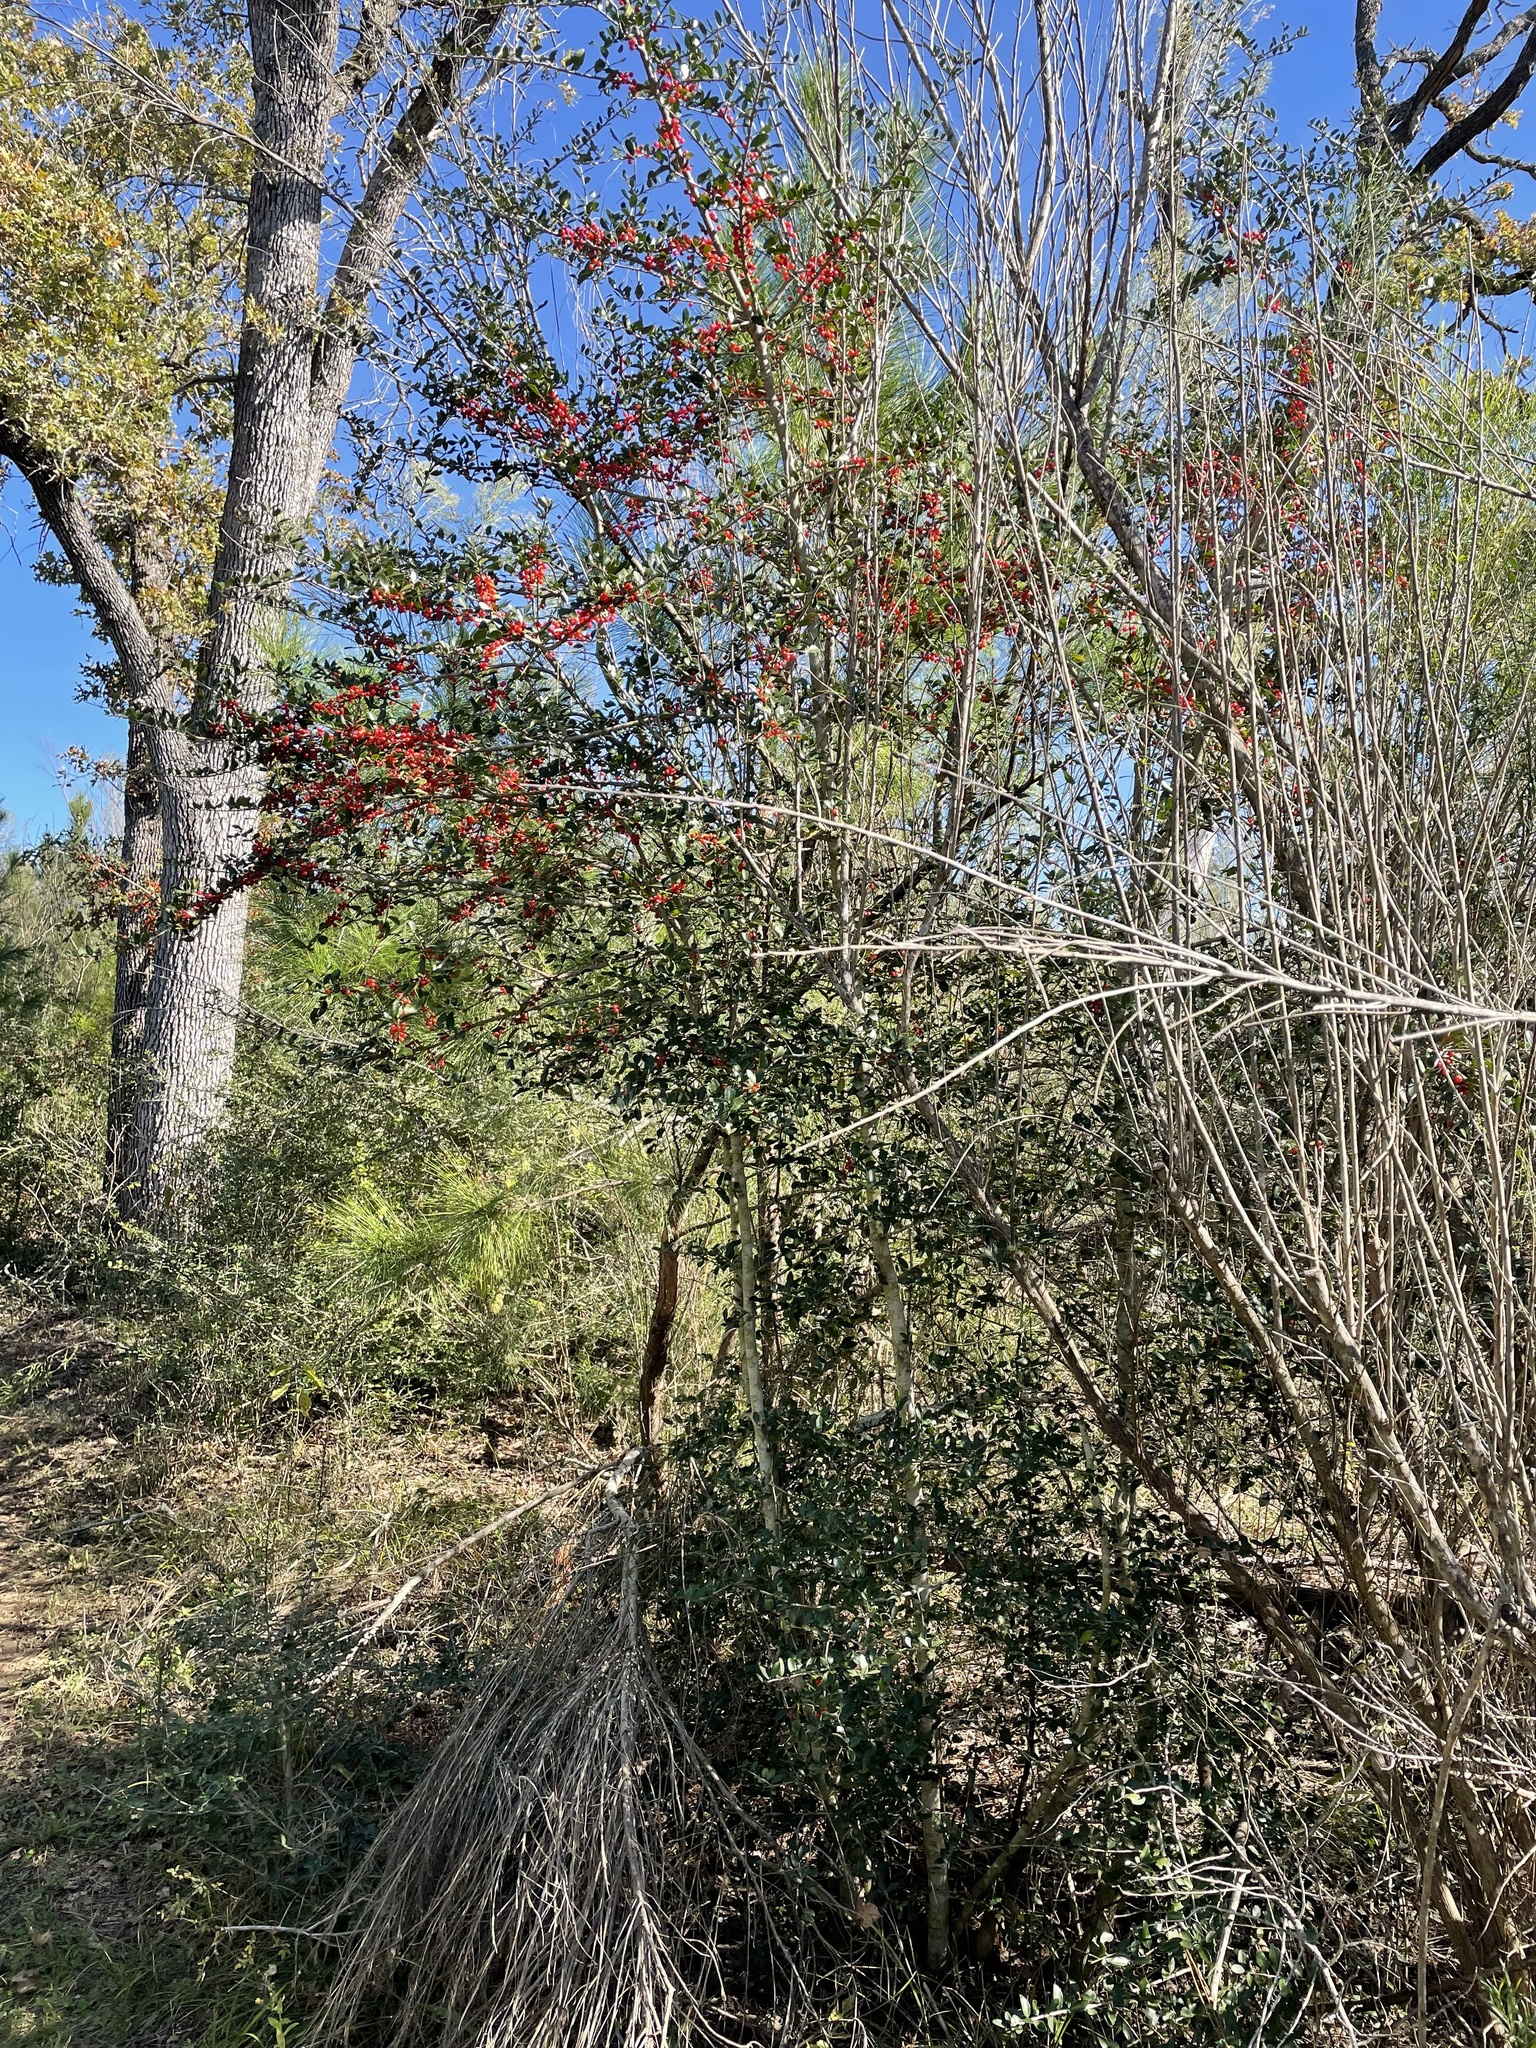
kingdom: Plantae
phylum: Tracheophyta
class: Magnoliopsida
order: Aquifoliales
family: Aquifoliaceae
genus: Ilex
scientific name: Ilex vomitoria
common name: Yaupon holly
